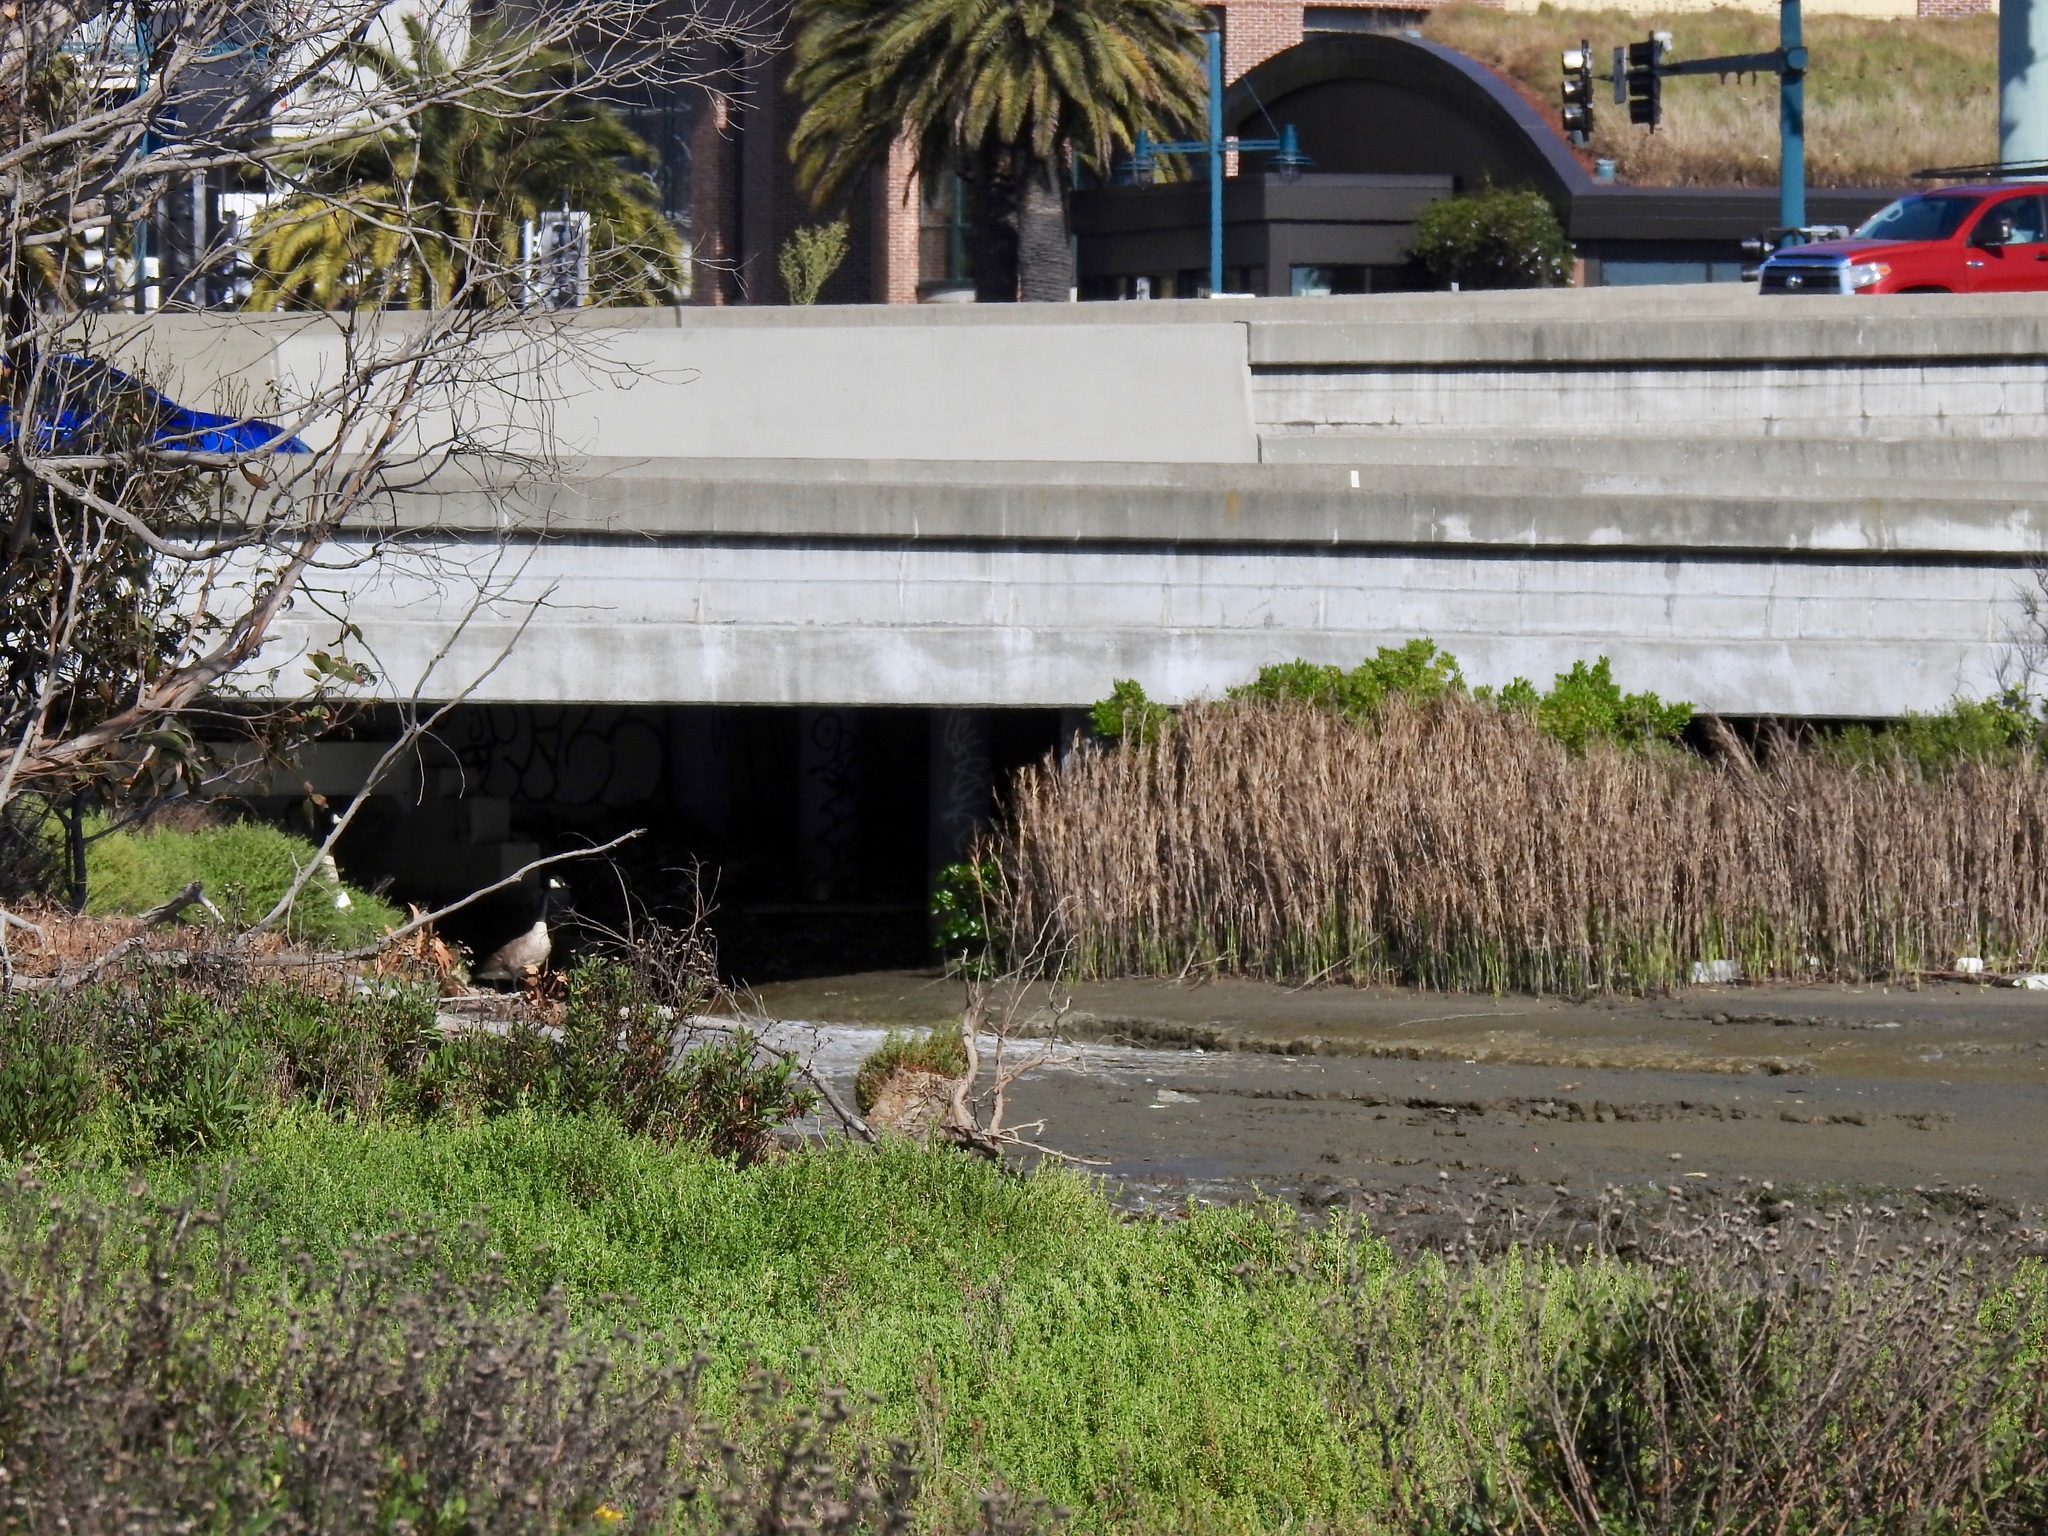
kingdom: Animalia
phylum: Chordata
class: Aves
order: Anseriformes
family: Anatidae
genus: Branta
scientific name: Branta canadensis
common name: Canada goose
